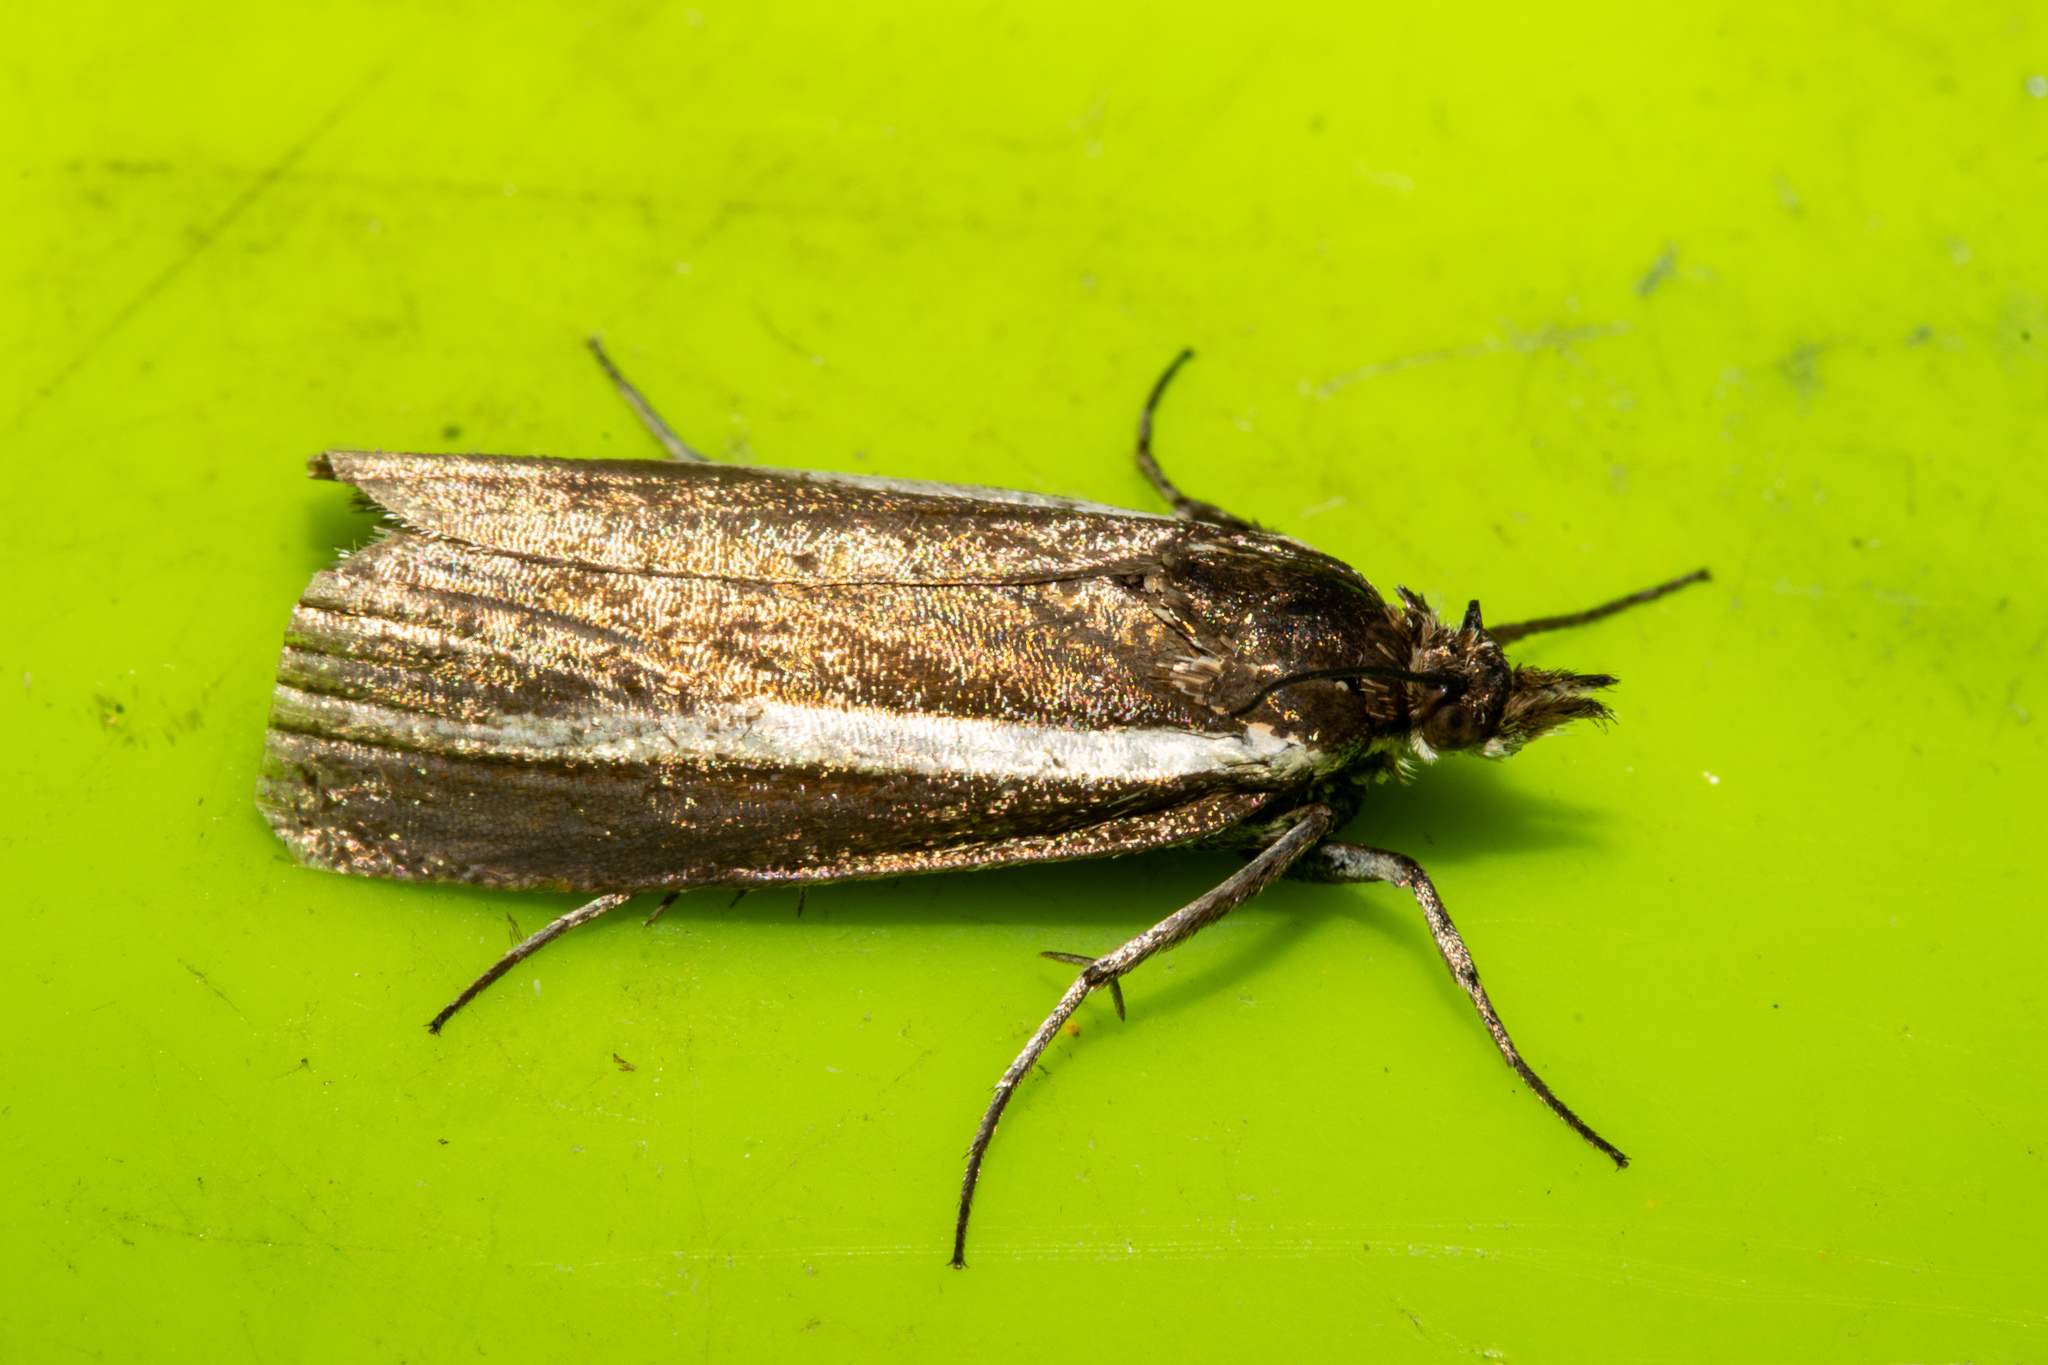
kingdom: Animalia
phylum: Arthropoda
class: Insecta
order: Lepidoptera
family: Crambidae
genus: Orocrambus
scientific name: Orocrambus mylites
